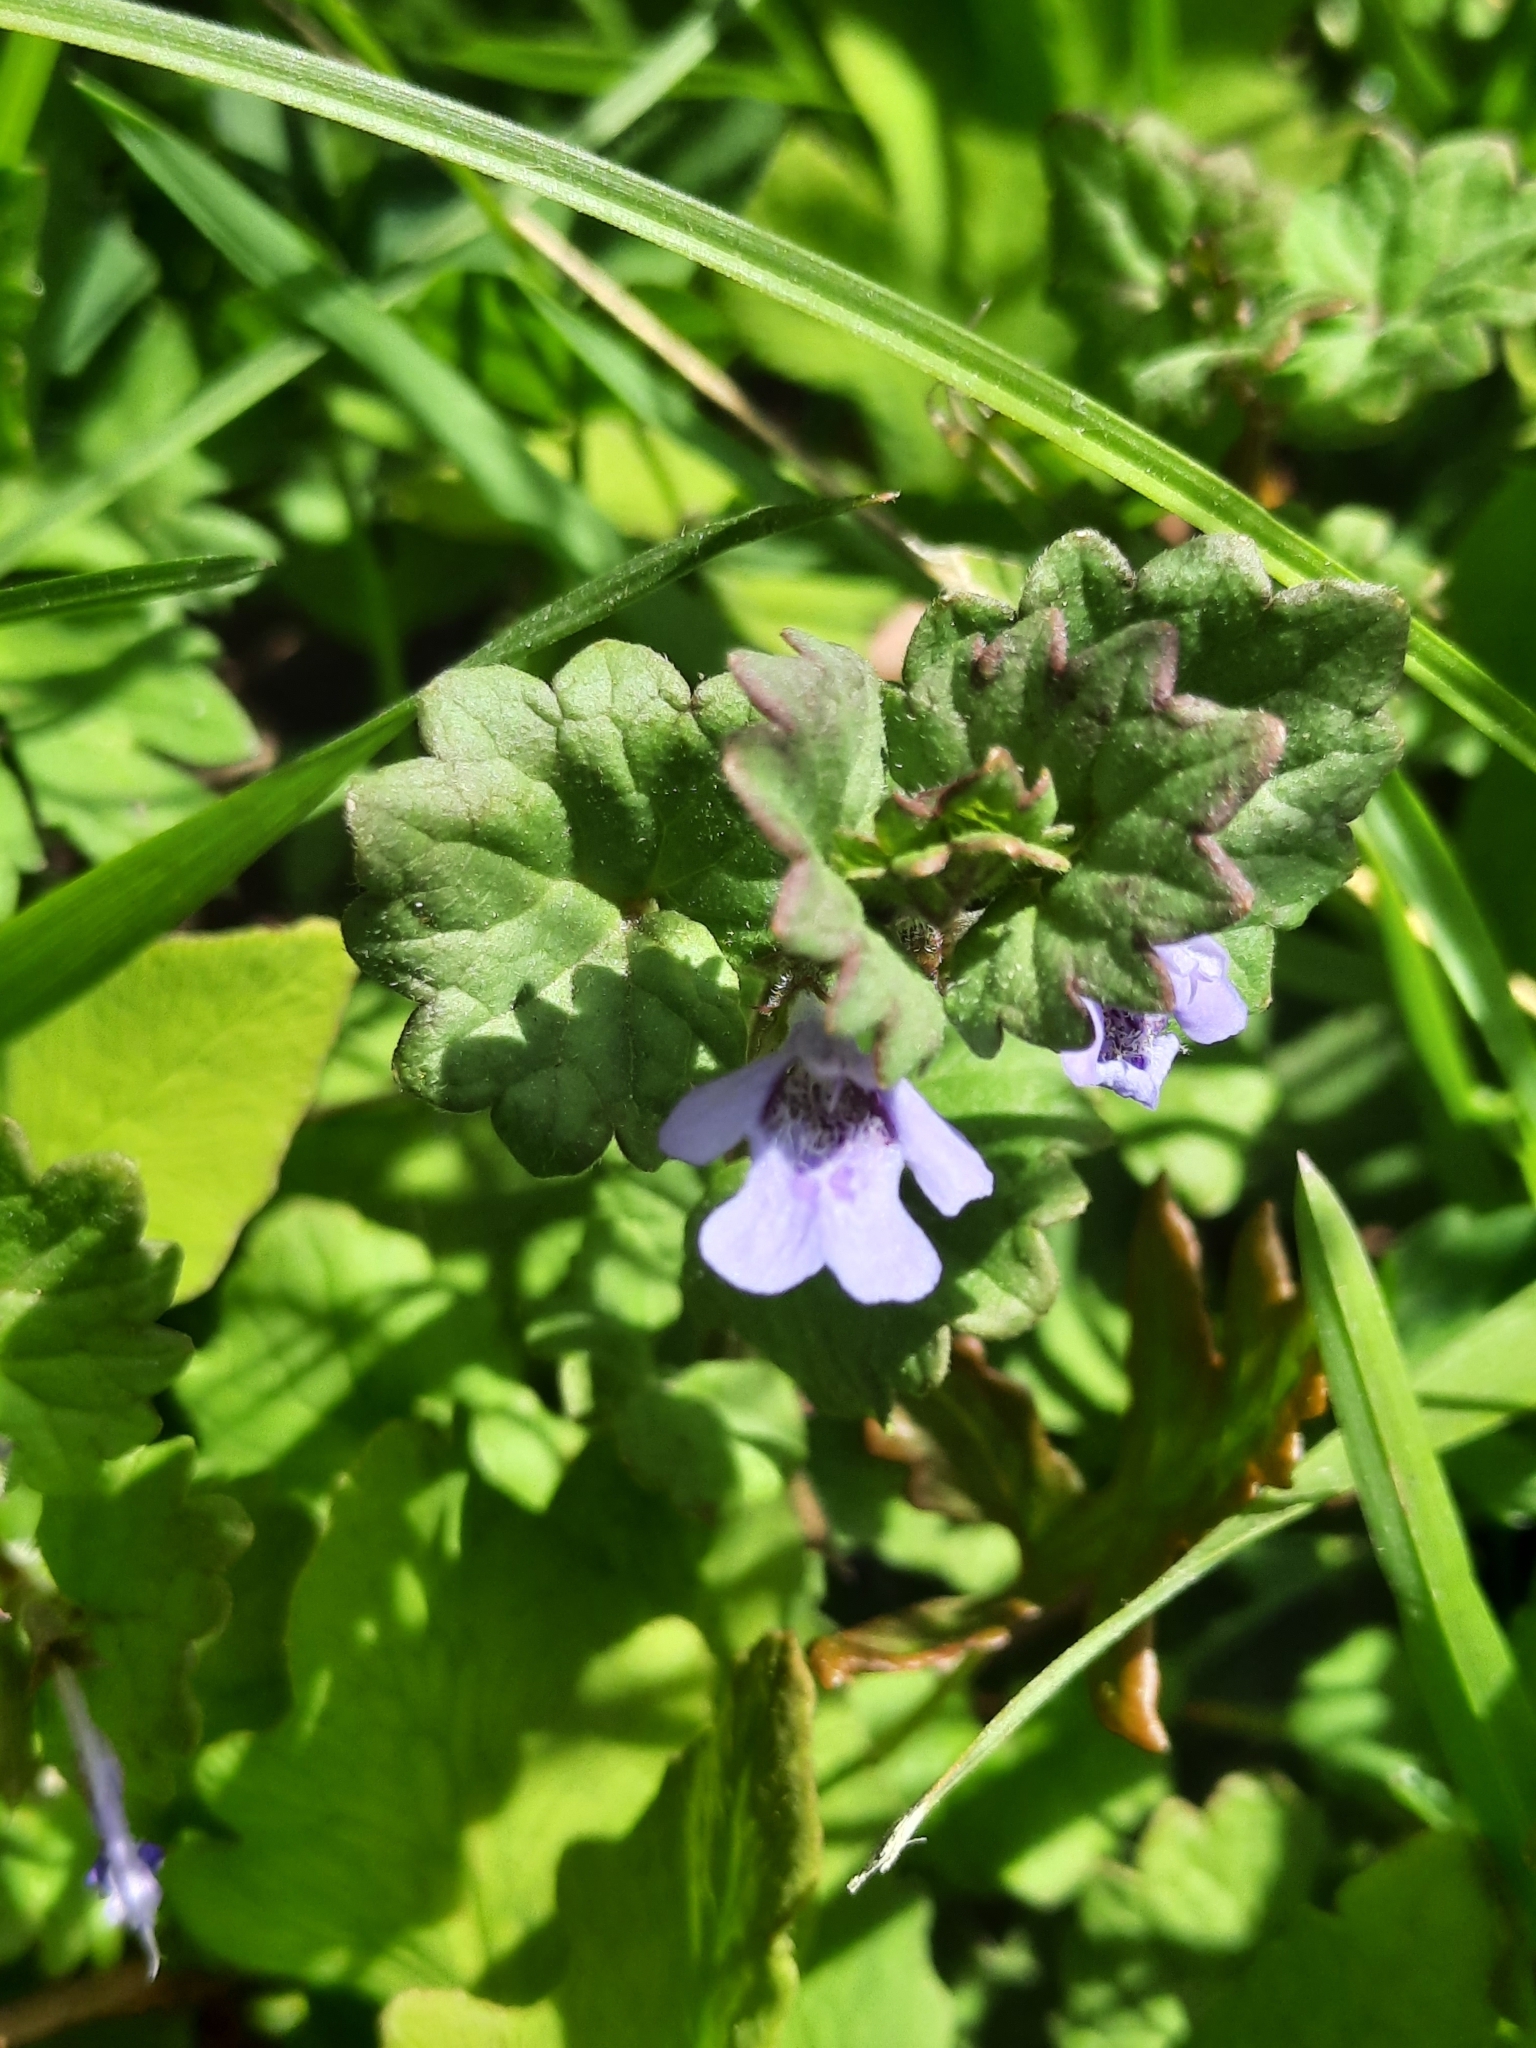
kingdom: Plantae
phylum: Tracheophyta
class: Magnoliopsida
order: Lamiales
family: Lamiaceae
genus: Glechoma
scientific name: Glechoma hederacea
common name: Ground ivy
